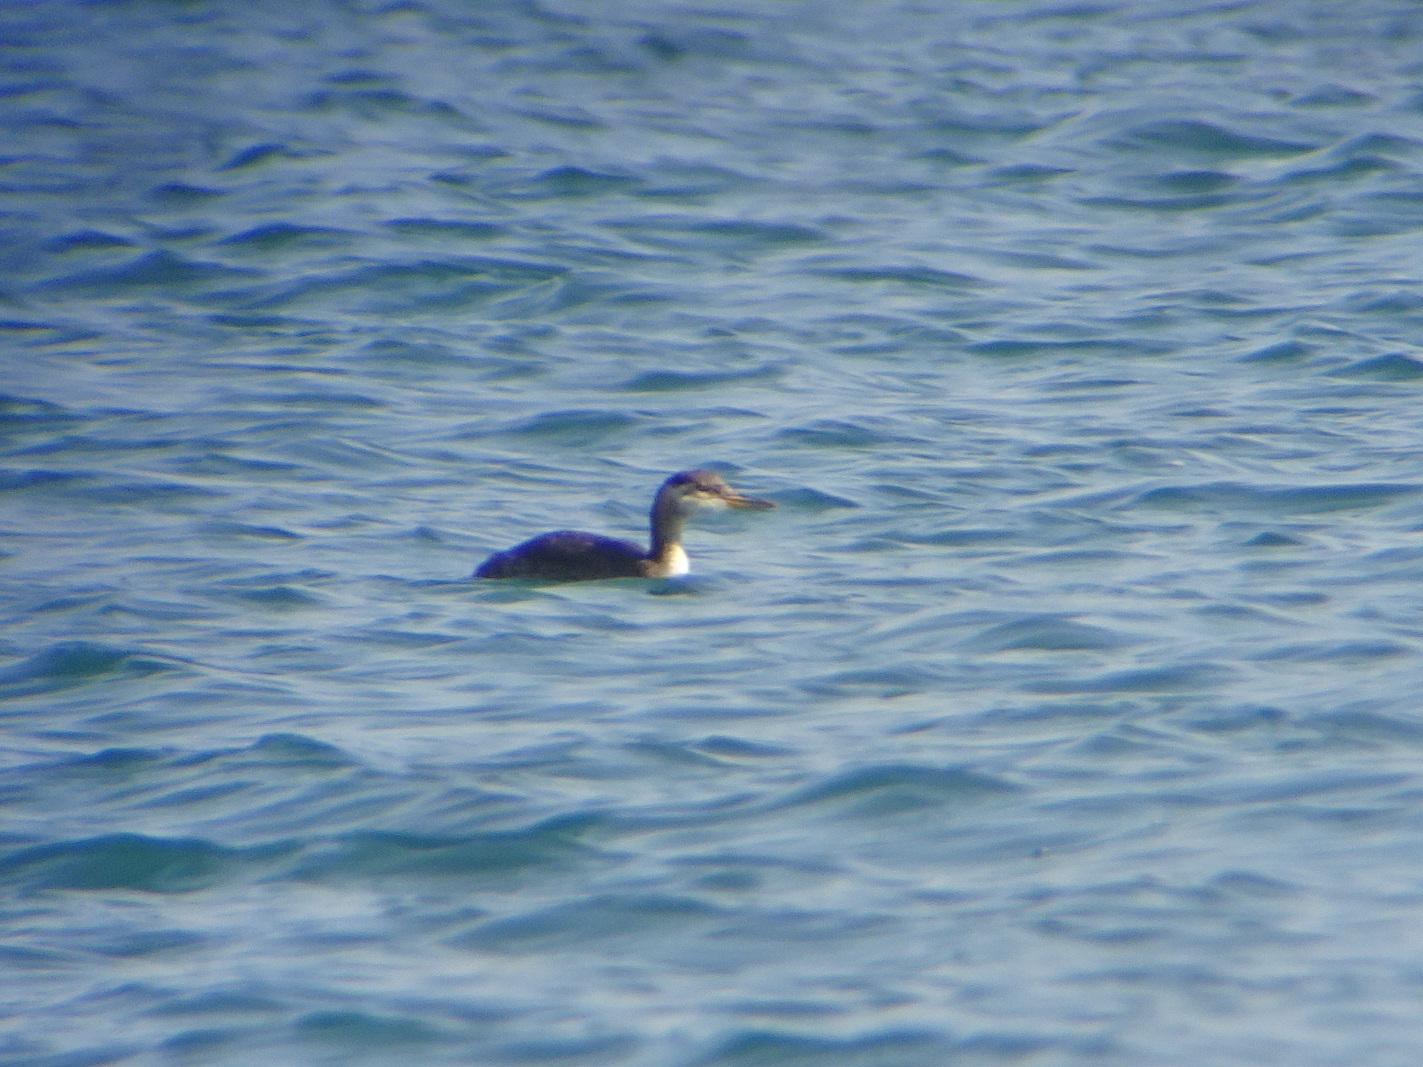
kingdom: Animalia
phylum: Chordata
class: Aves
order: Podicipediformes
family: Podicipedidae
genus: Podiceps
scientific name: Podiceps grisegena
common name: Red-necked grebe
